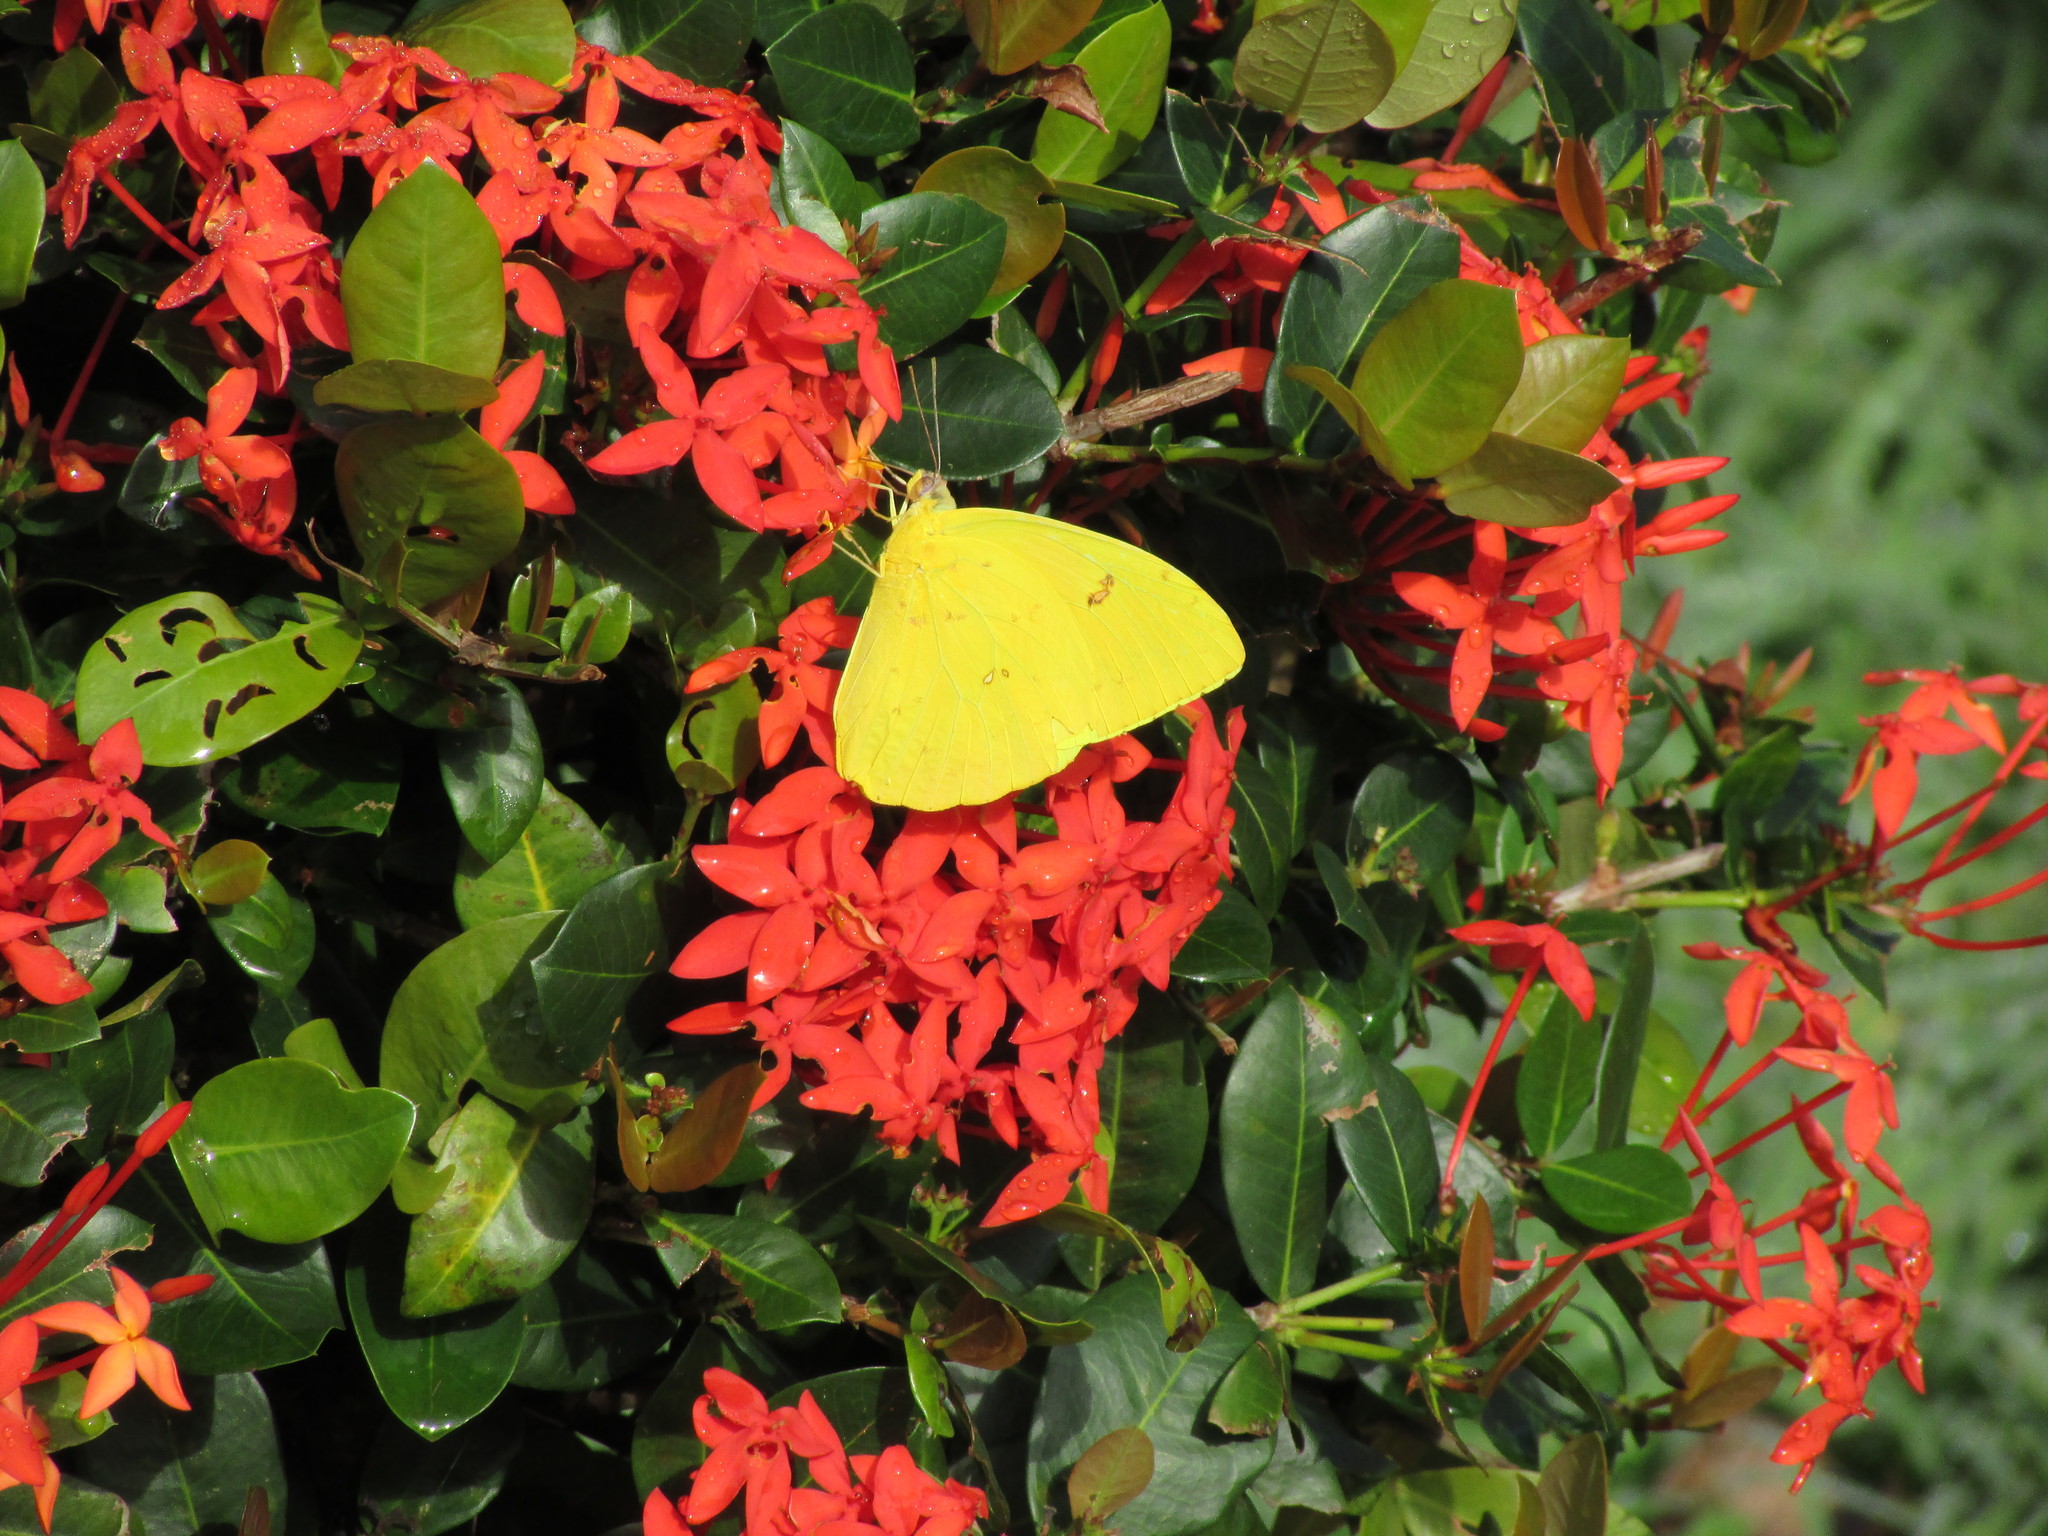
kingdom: Animalia
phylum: Arthropoda
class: Insecta
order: Lepidoptera
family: Pieridae
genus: Phoebis
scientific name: Phoebis sennae
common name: Cloudless sulphur
